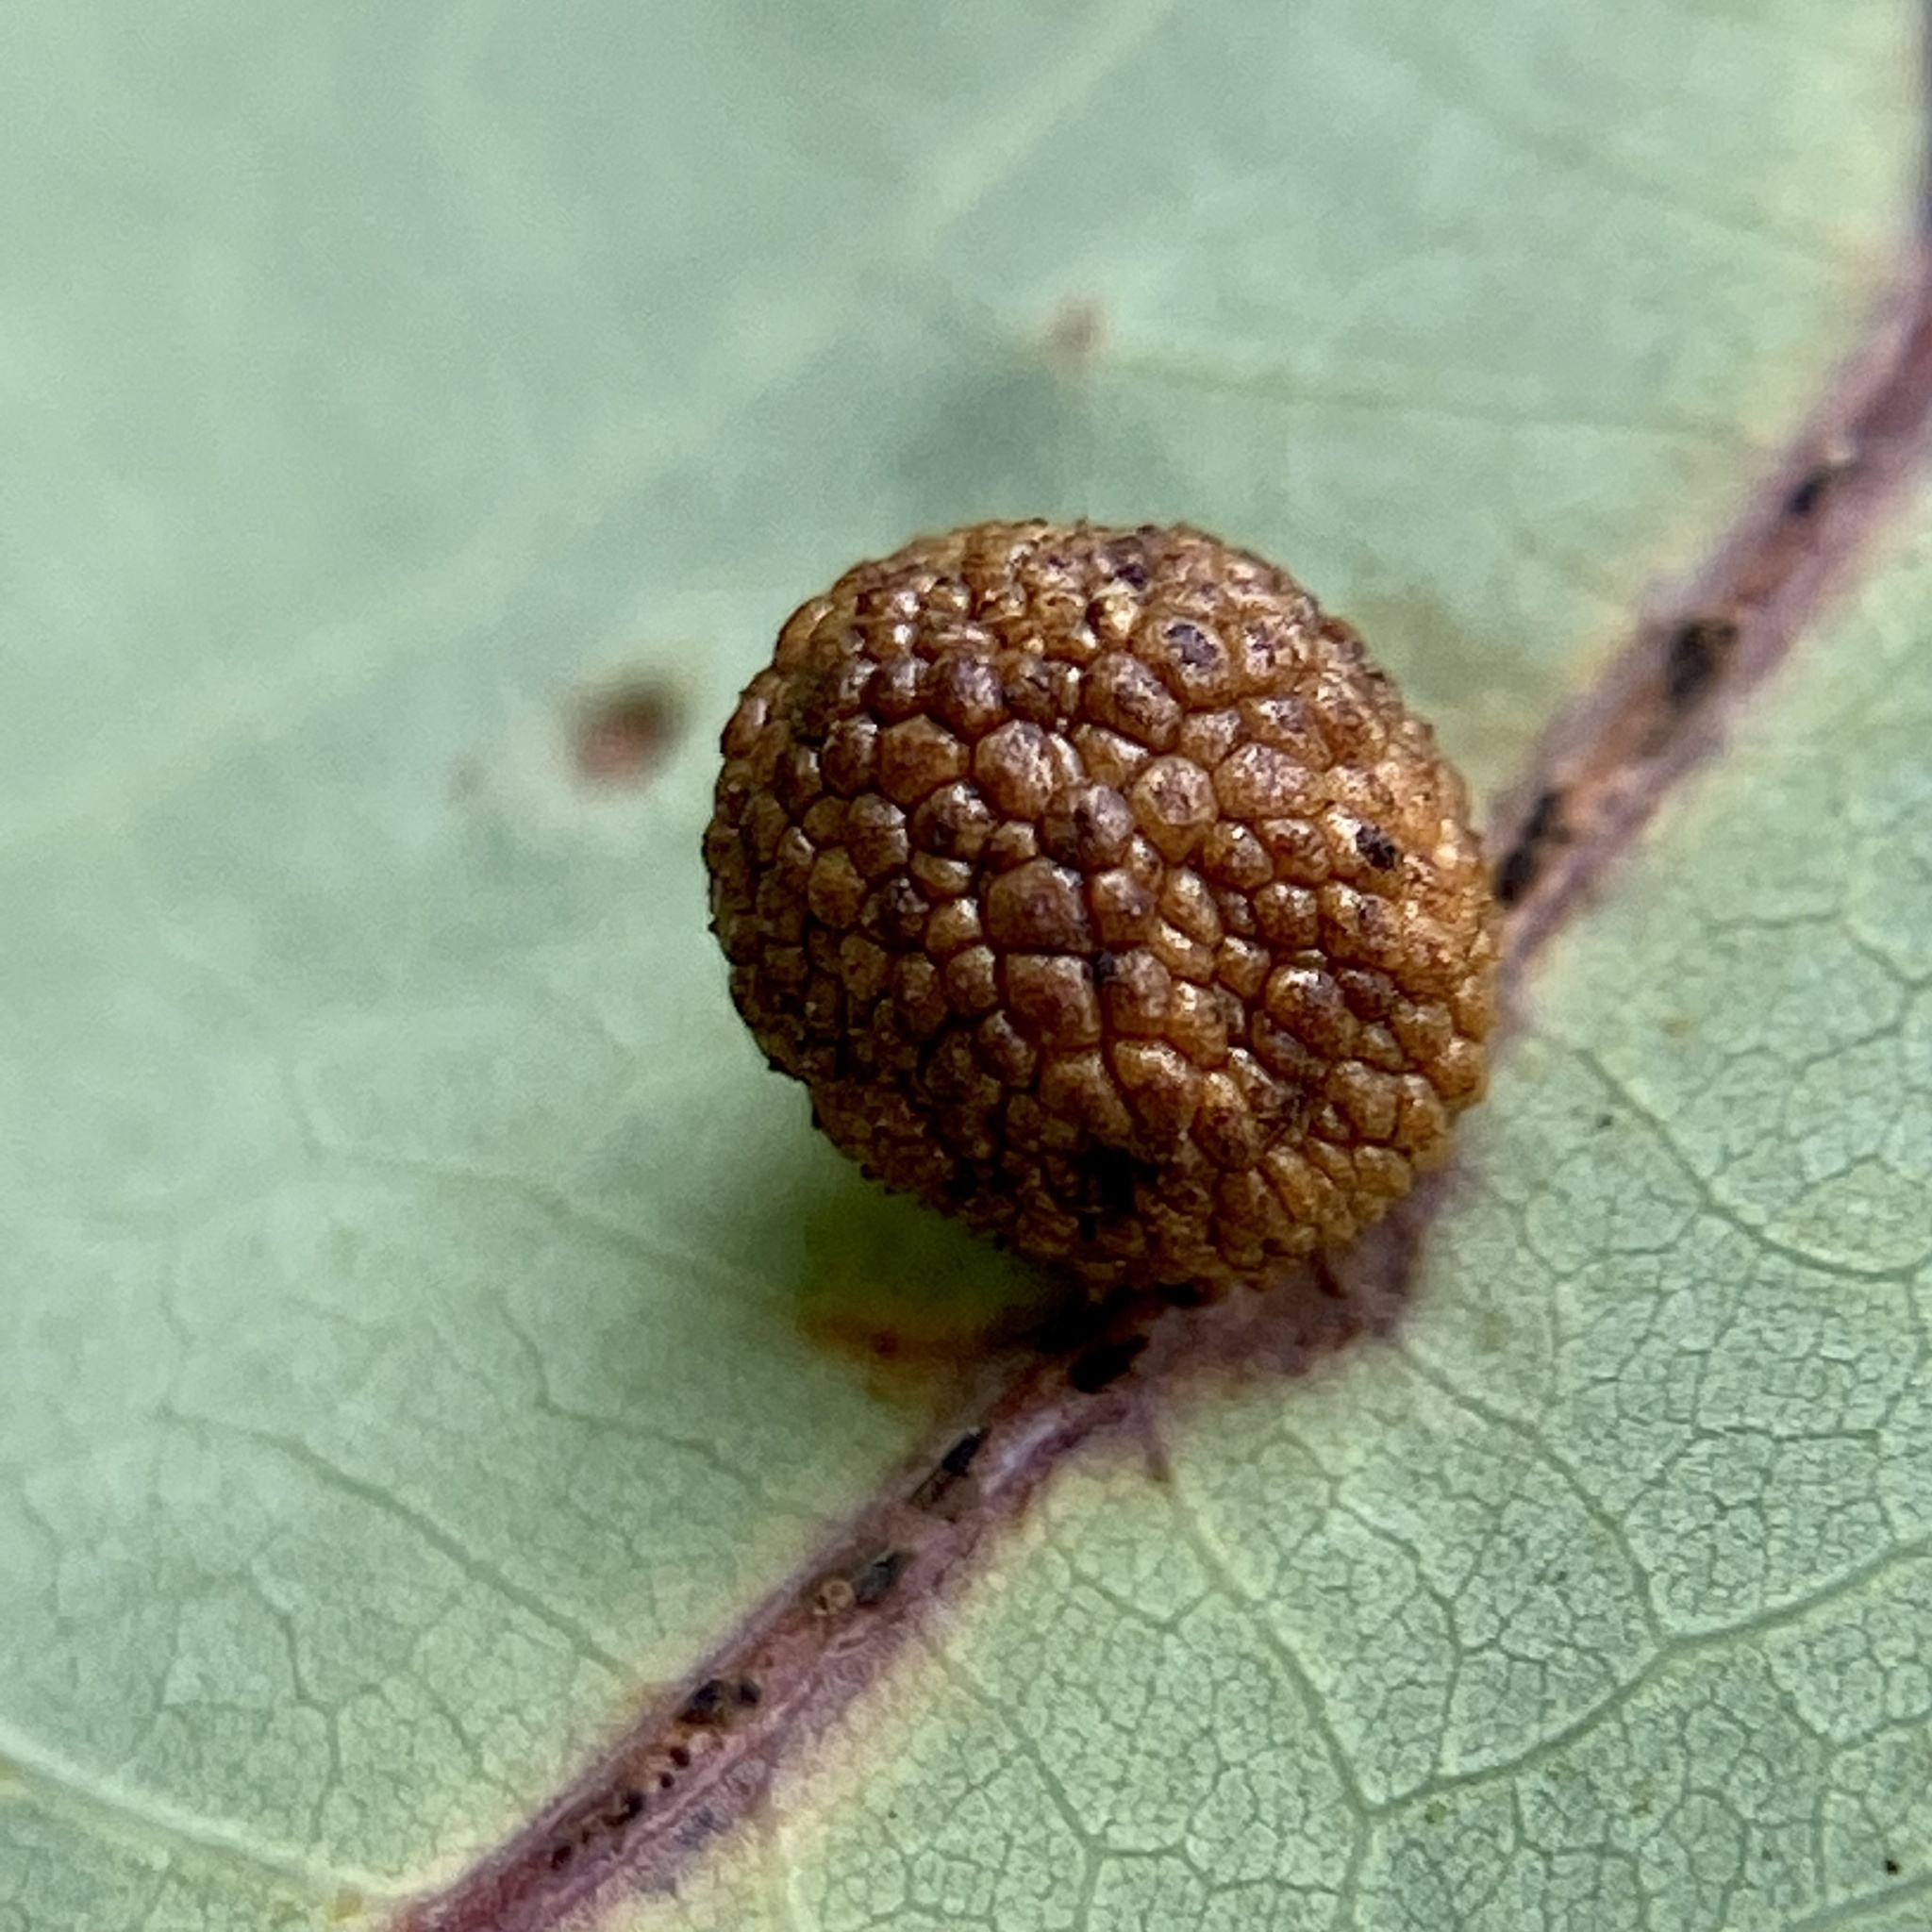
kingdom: Animalia
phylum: Arthropoda
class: Insecta
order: Hymenoptera
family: Cynipidae
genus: Acraspis
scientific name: Acraspis
